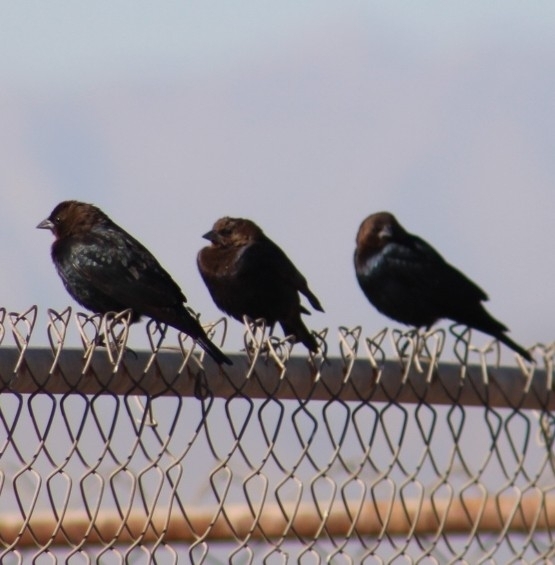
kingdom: Animalia
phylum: Chordata
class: Aves
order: Passeriformes
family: Icteridae
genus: Molothrus
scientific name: Molothrus ater
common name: Brown-headed cowbird
